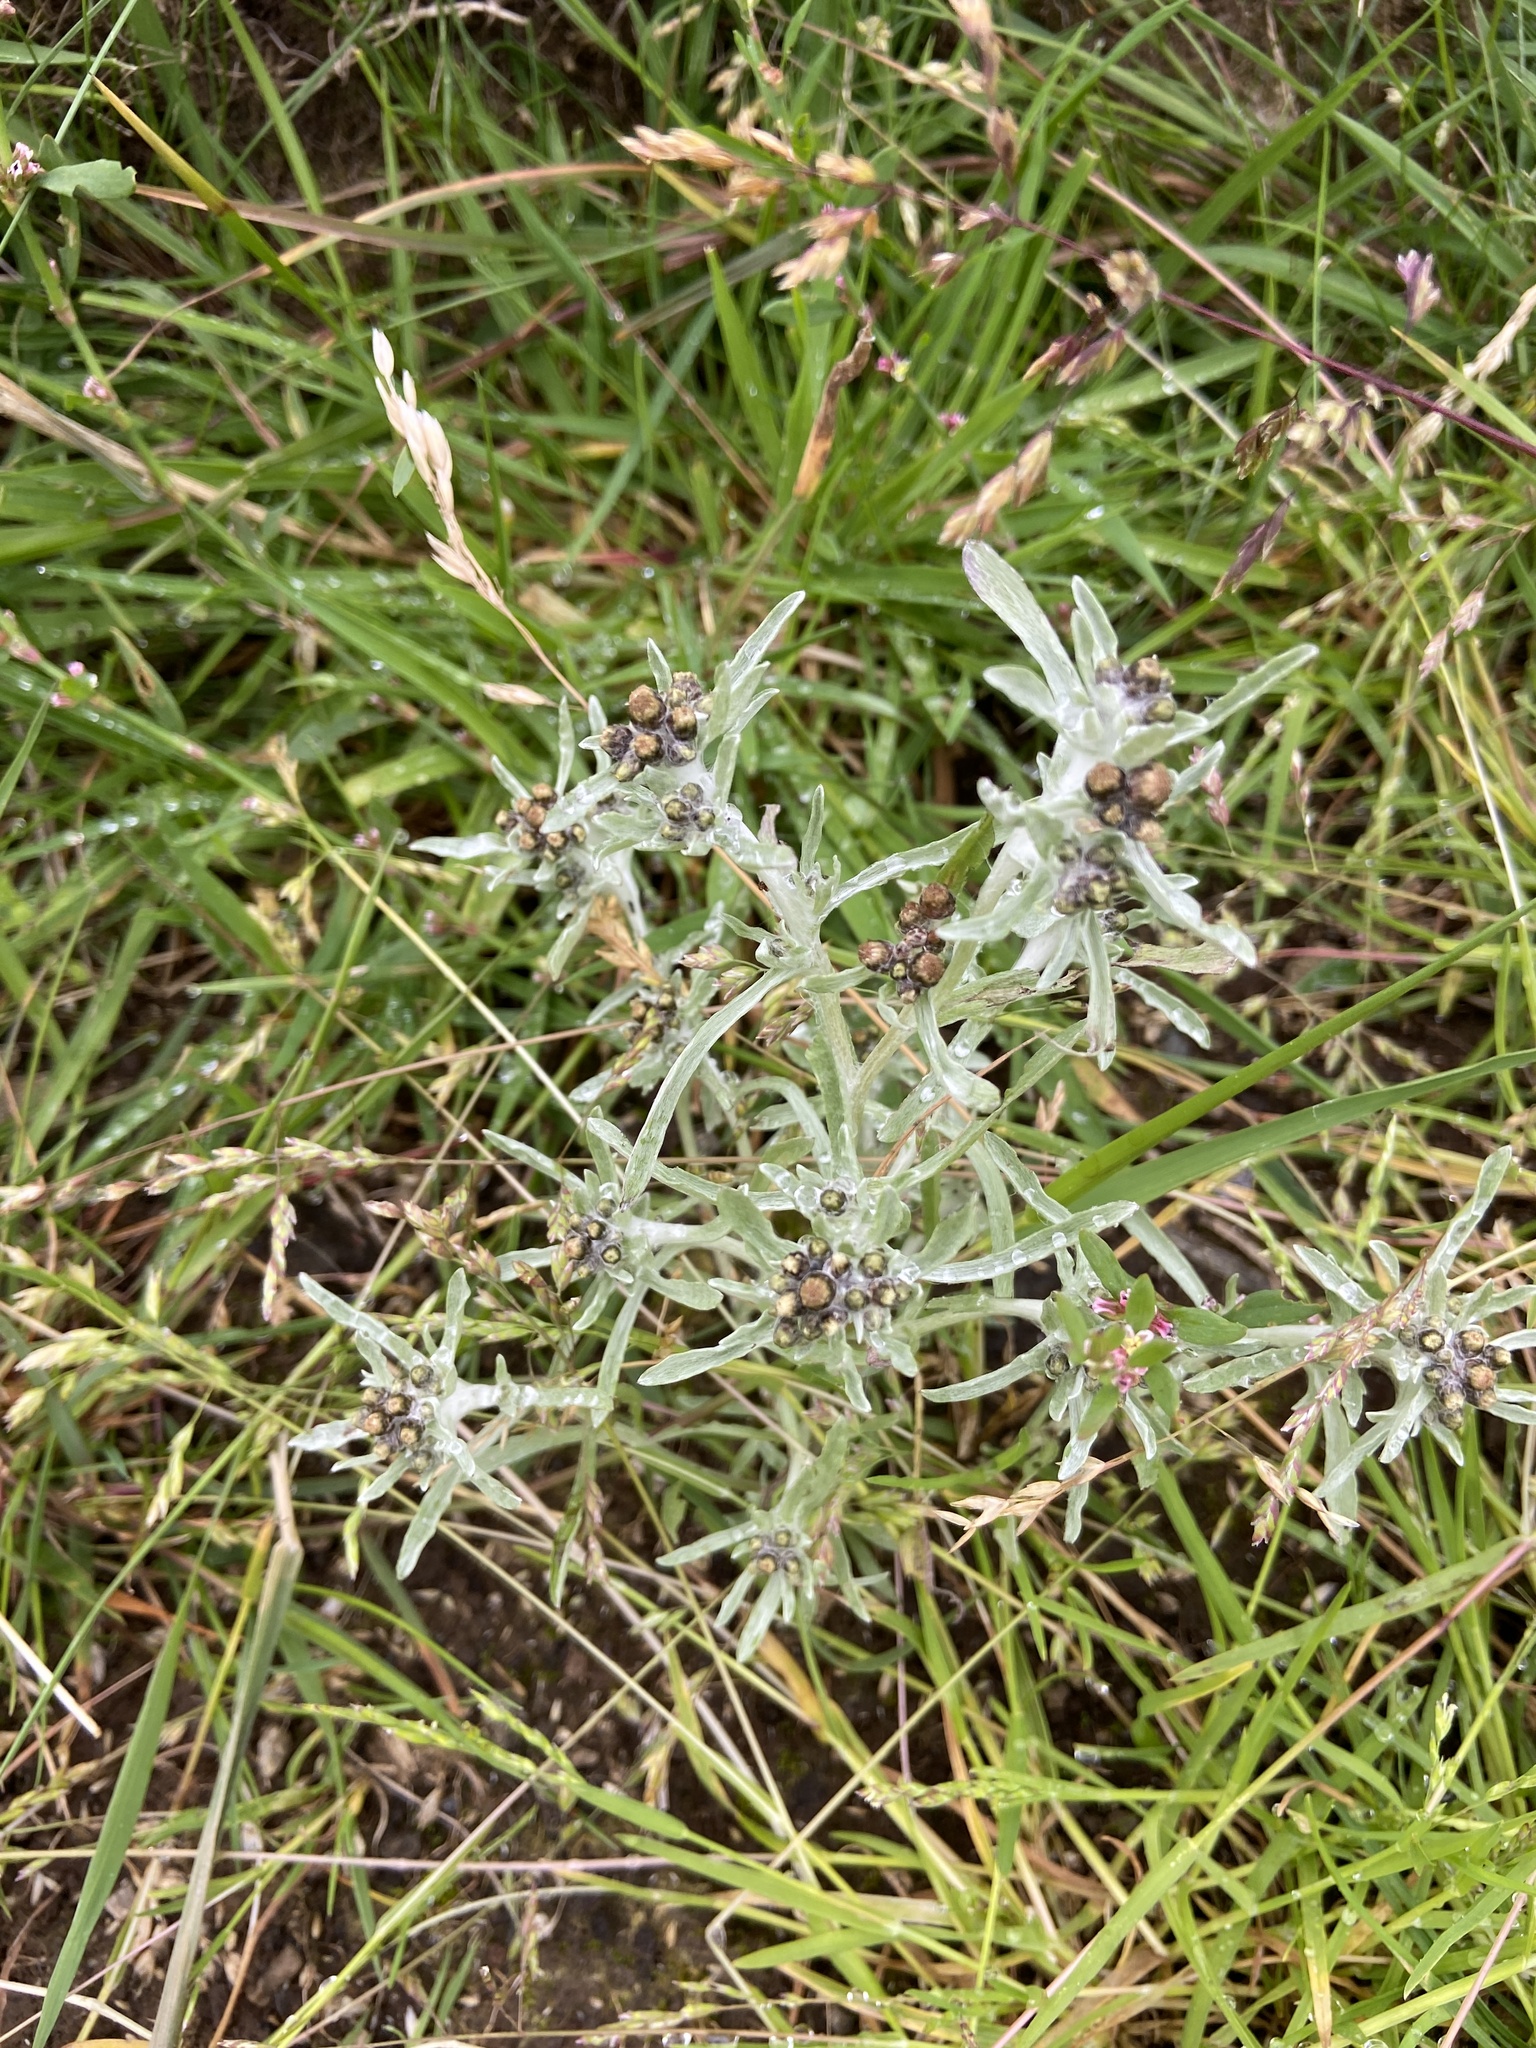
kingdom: Plantae
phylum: Tracheophyta
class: Magnoliopsida
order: Asterales
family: Asteraceae
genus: Gnaphalium
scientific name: Gnaphalium uliginosum
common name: Marsh cudweed
